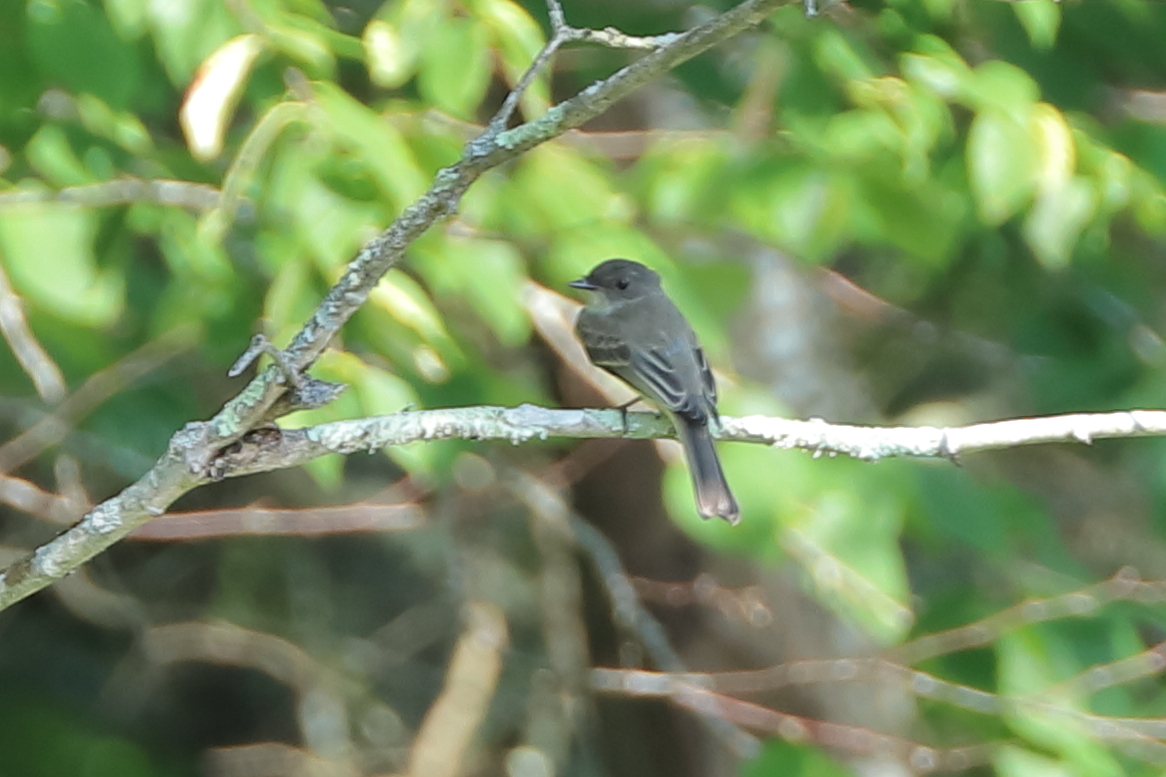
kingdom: Animalia
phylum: Chordata
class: Aves
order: Passeriformes
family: Tyrannidae
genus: Contopus
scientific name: Contopus virens
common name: Eastern wood-pewee
